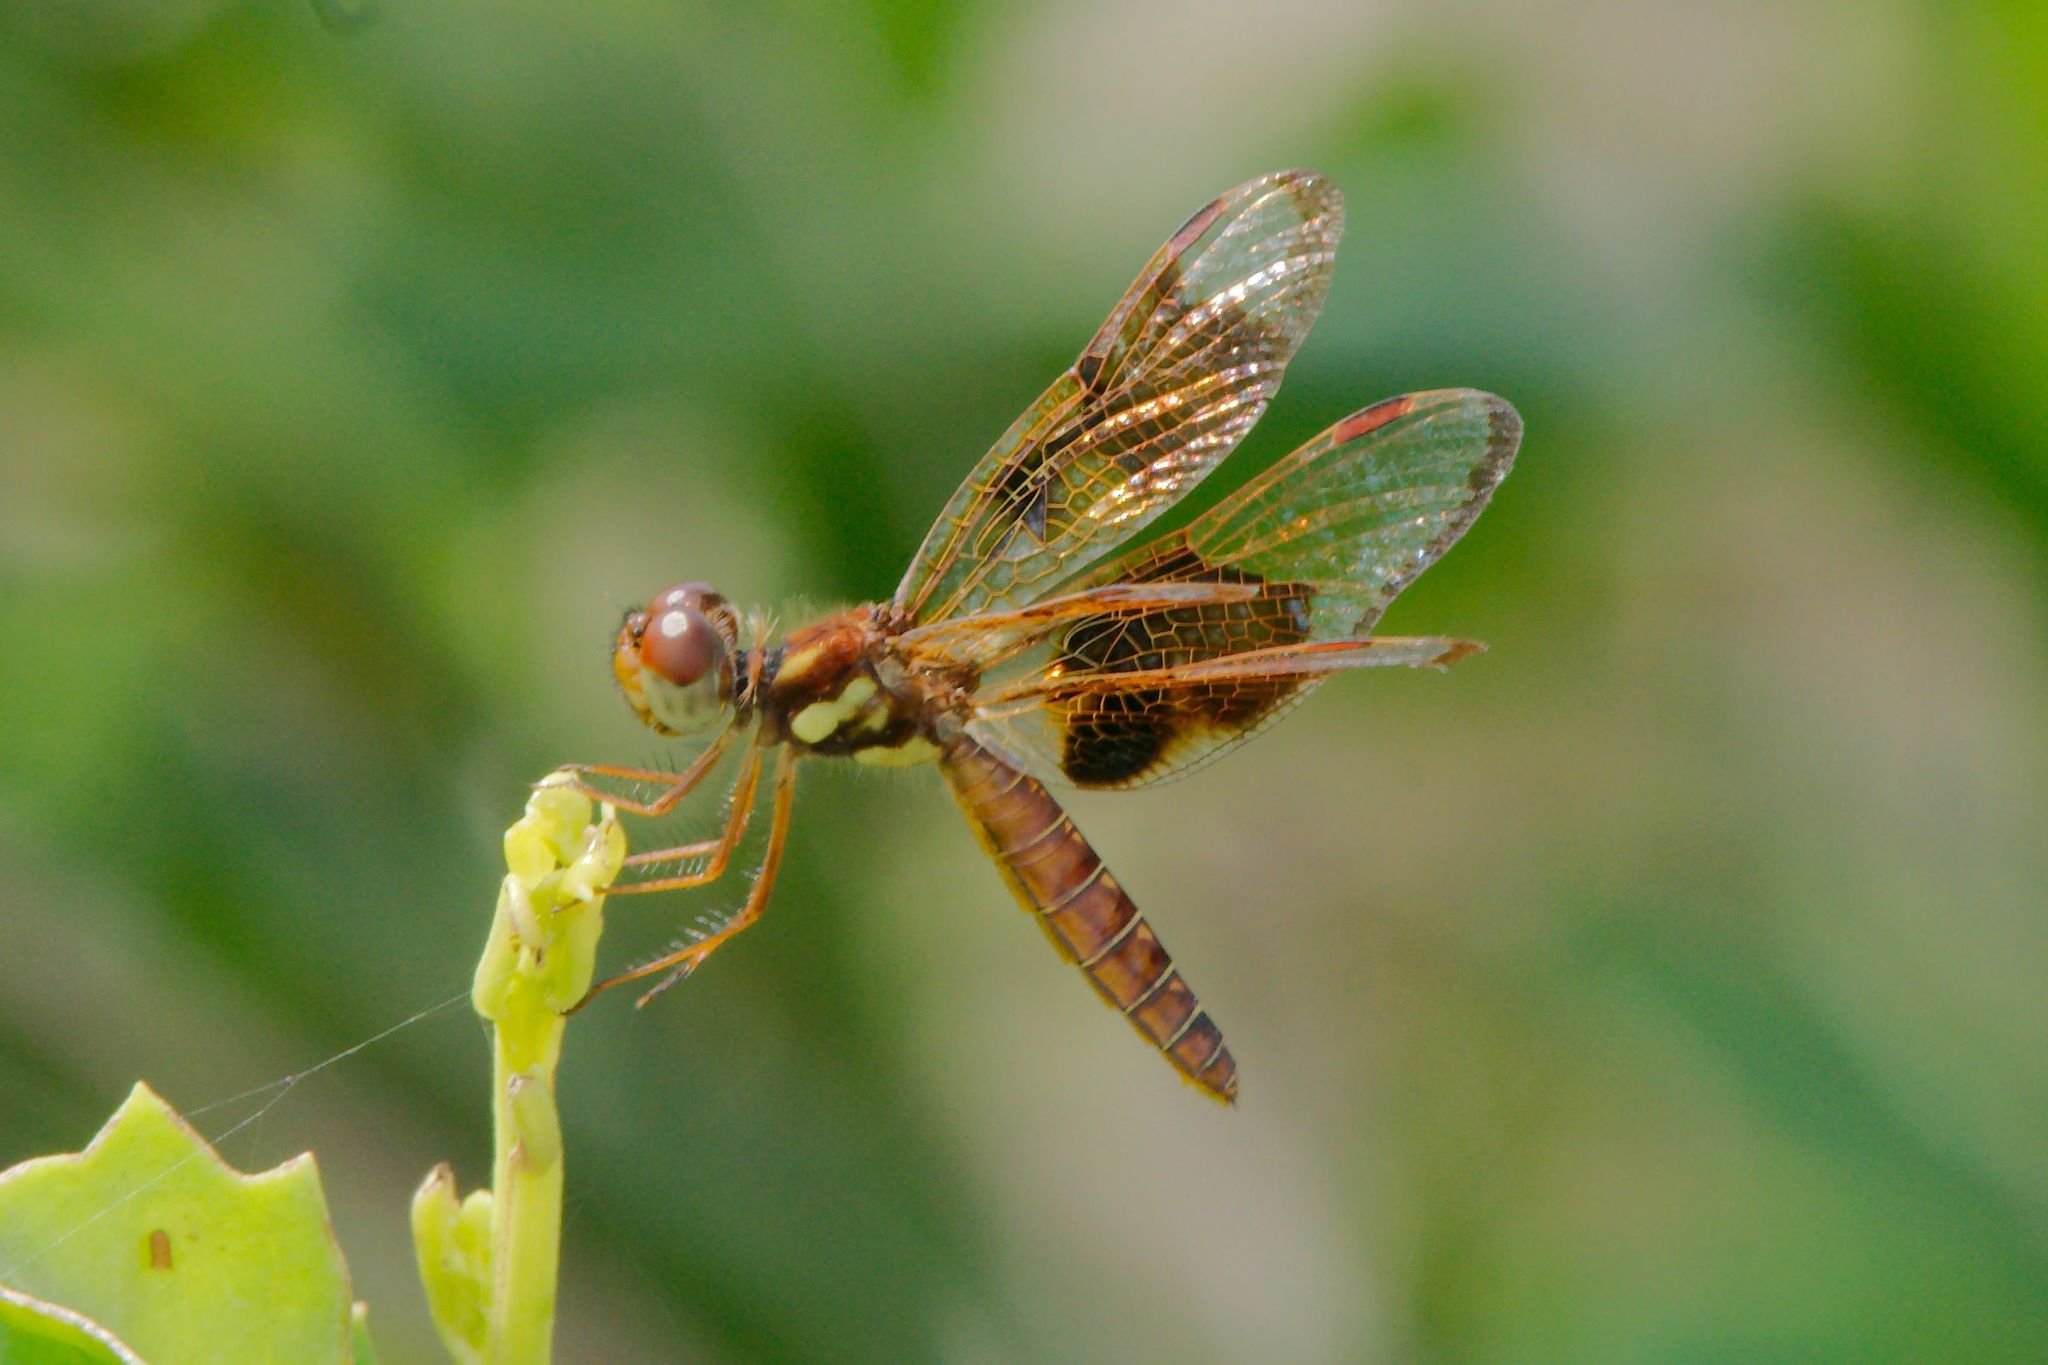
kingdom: Animalia
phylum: Arthropoda
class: Insecta
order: Odonata
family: Libellulidae
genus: Perithemis
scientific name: Perithemis tenera
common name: Eastern amberwing
